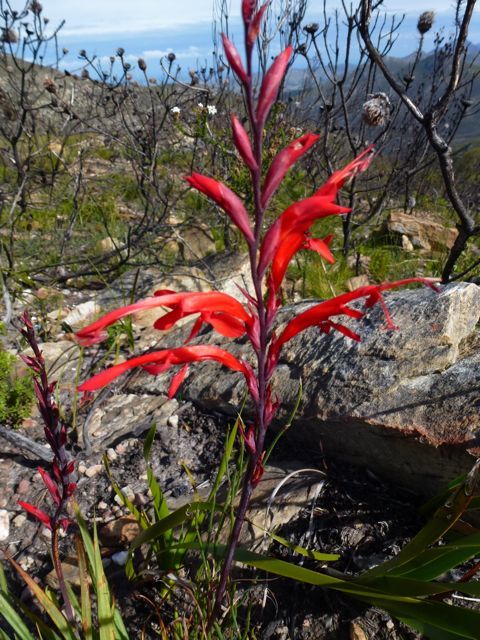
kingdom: Plantae
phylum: Tracheophyta
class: Liliopsida
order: Asparagales
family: Iridaceae
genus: Tritoniopsis
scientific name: Tritoniopsis caffra
